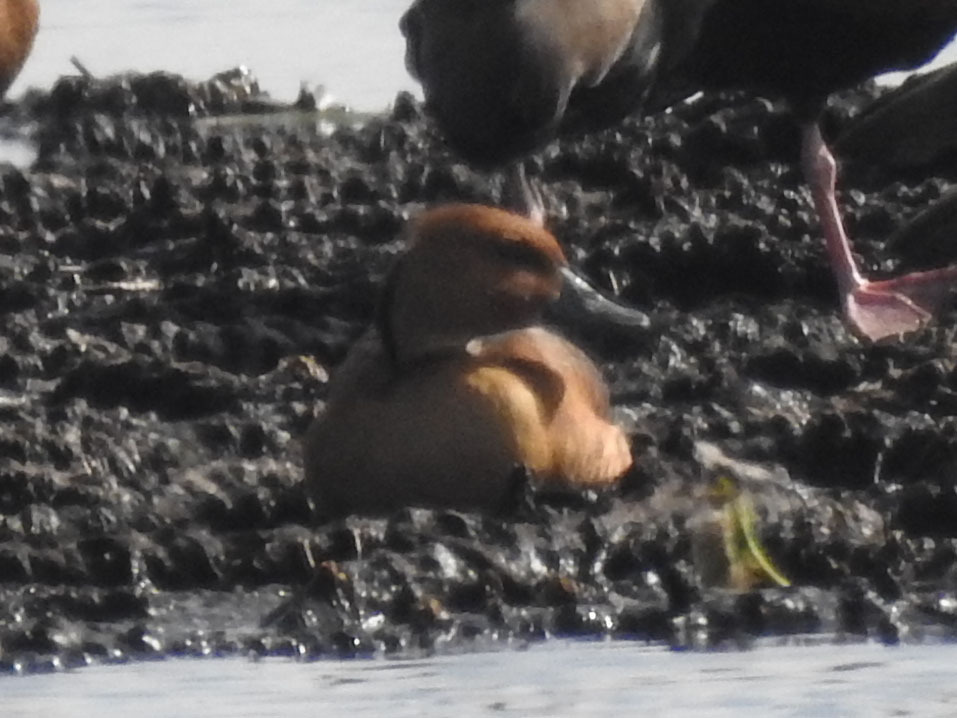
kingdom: Animalia
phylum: Chordata
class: Aves
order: Anseriformes
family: Anatidae
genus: Dendrocygna
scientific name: Dendrocygna bicolor
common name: Fulvous whistling duck
